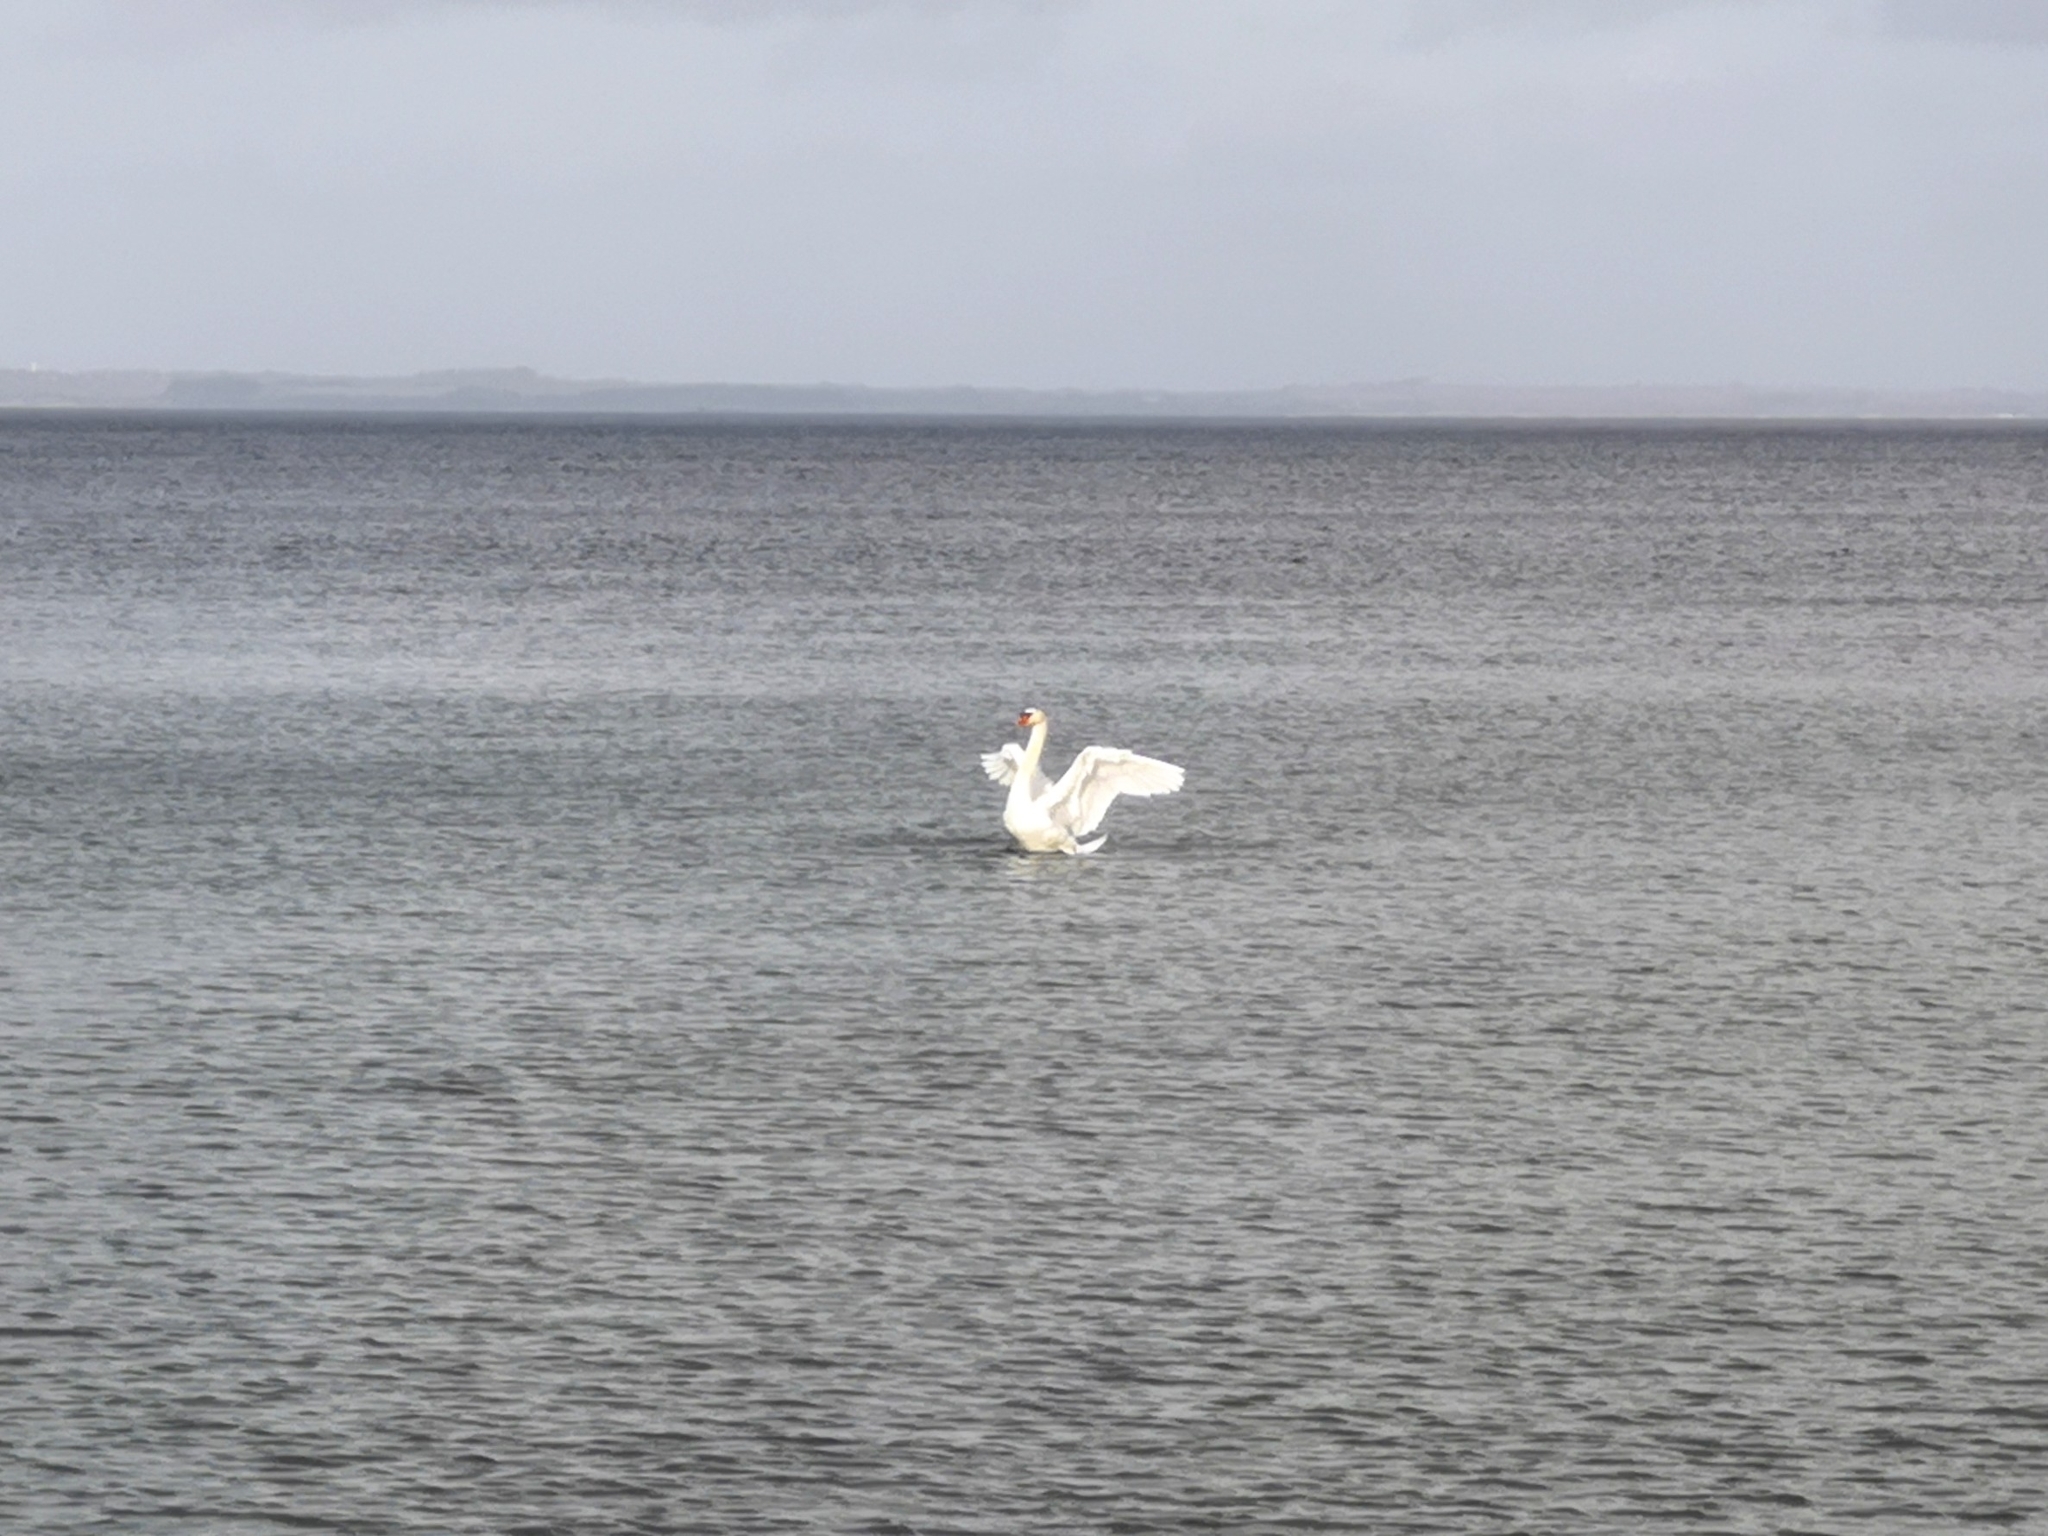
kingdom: Animalia
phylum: Chordata
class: Aves
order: Anseriformes
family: Anatidae
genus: Cygnus
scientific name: Cygnus olor
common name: Mute swan
